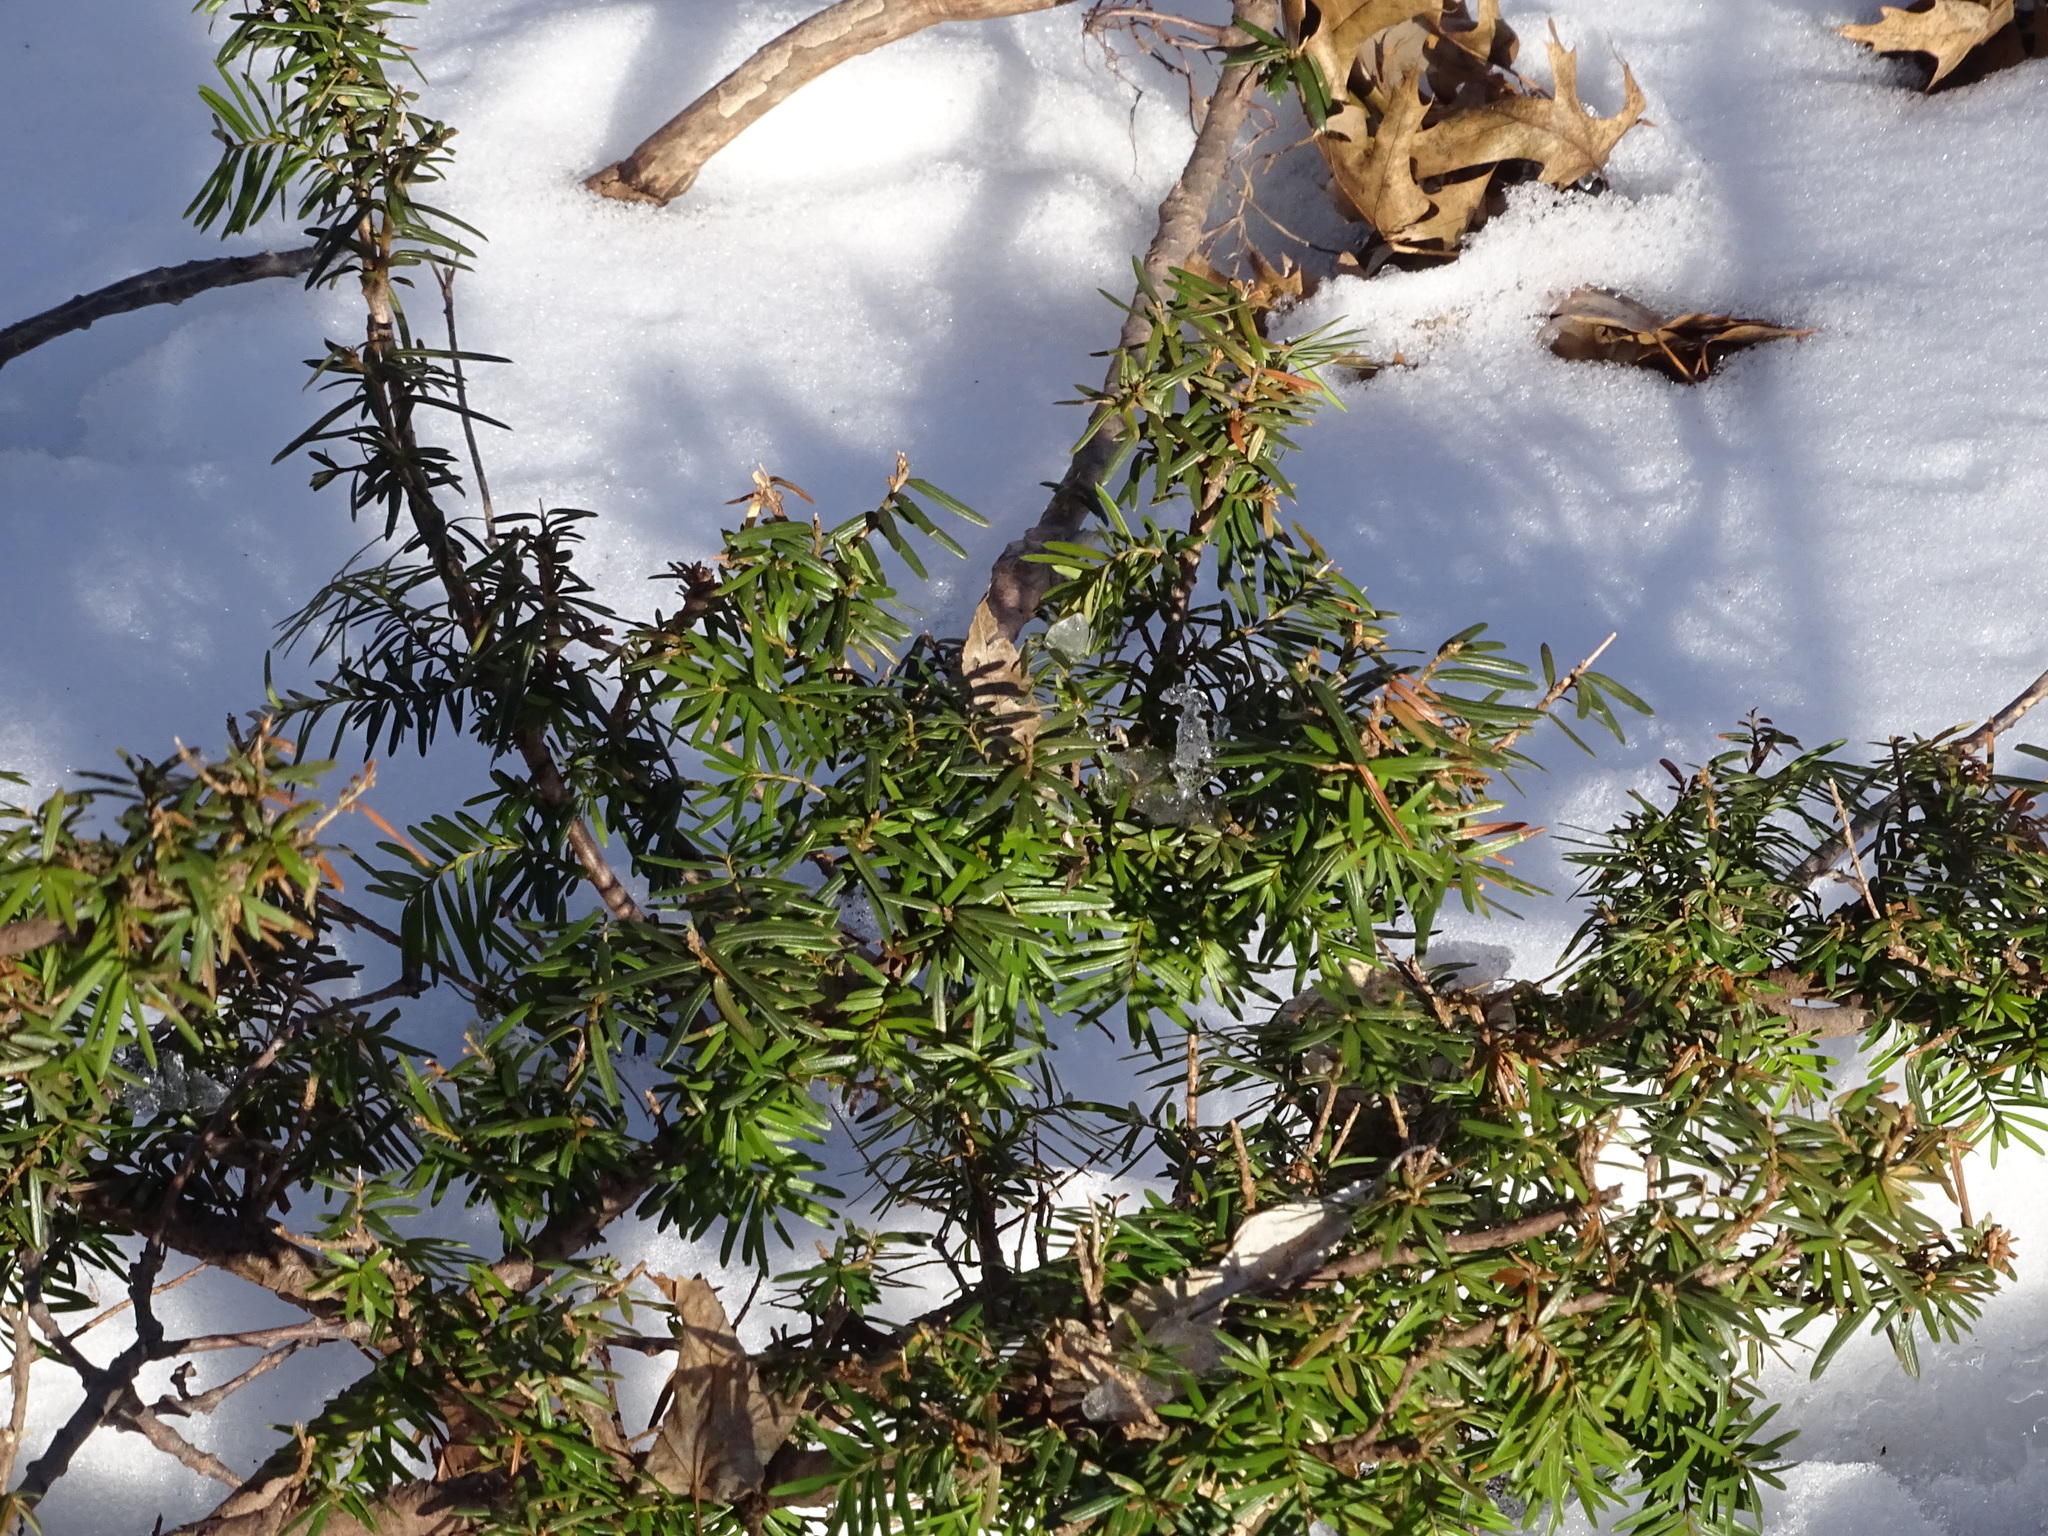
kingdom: Plantae
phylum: Tracheophyta
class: Pinopsida
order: Pinales
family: Taxaceae
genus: Taxus
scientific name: Taxus canadensis
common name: American yew
